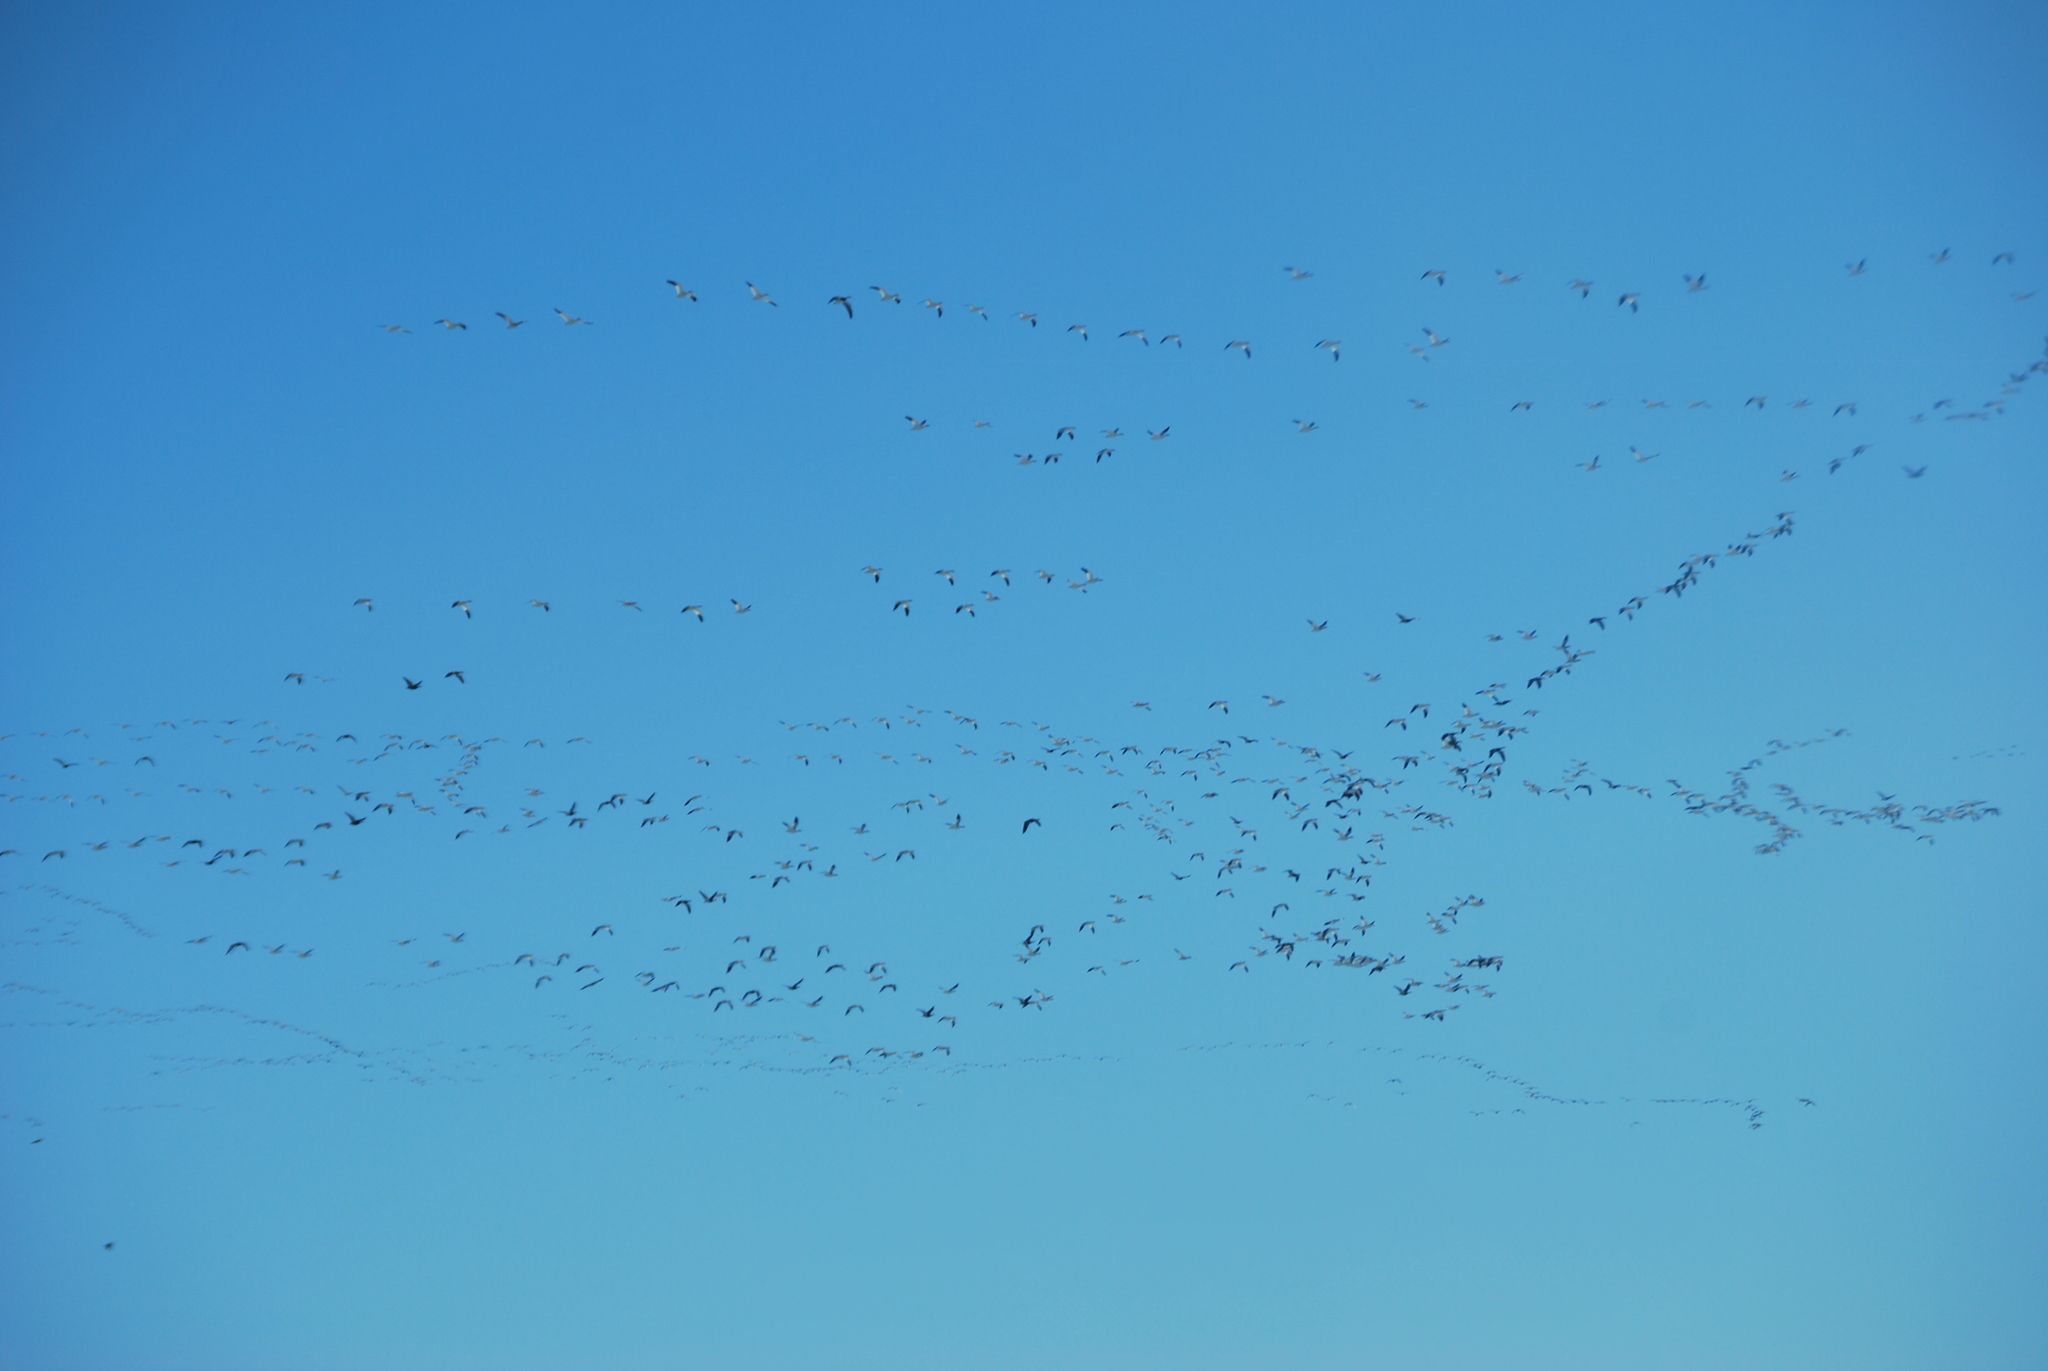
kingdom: Animalia
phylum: Chordata
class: Aves
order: Anseriformes
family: Anatidae
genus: Anser
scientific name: Anser caerulescens
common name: Snow goose
